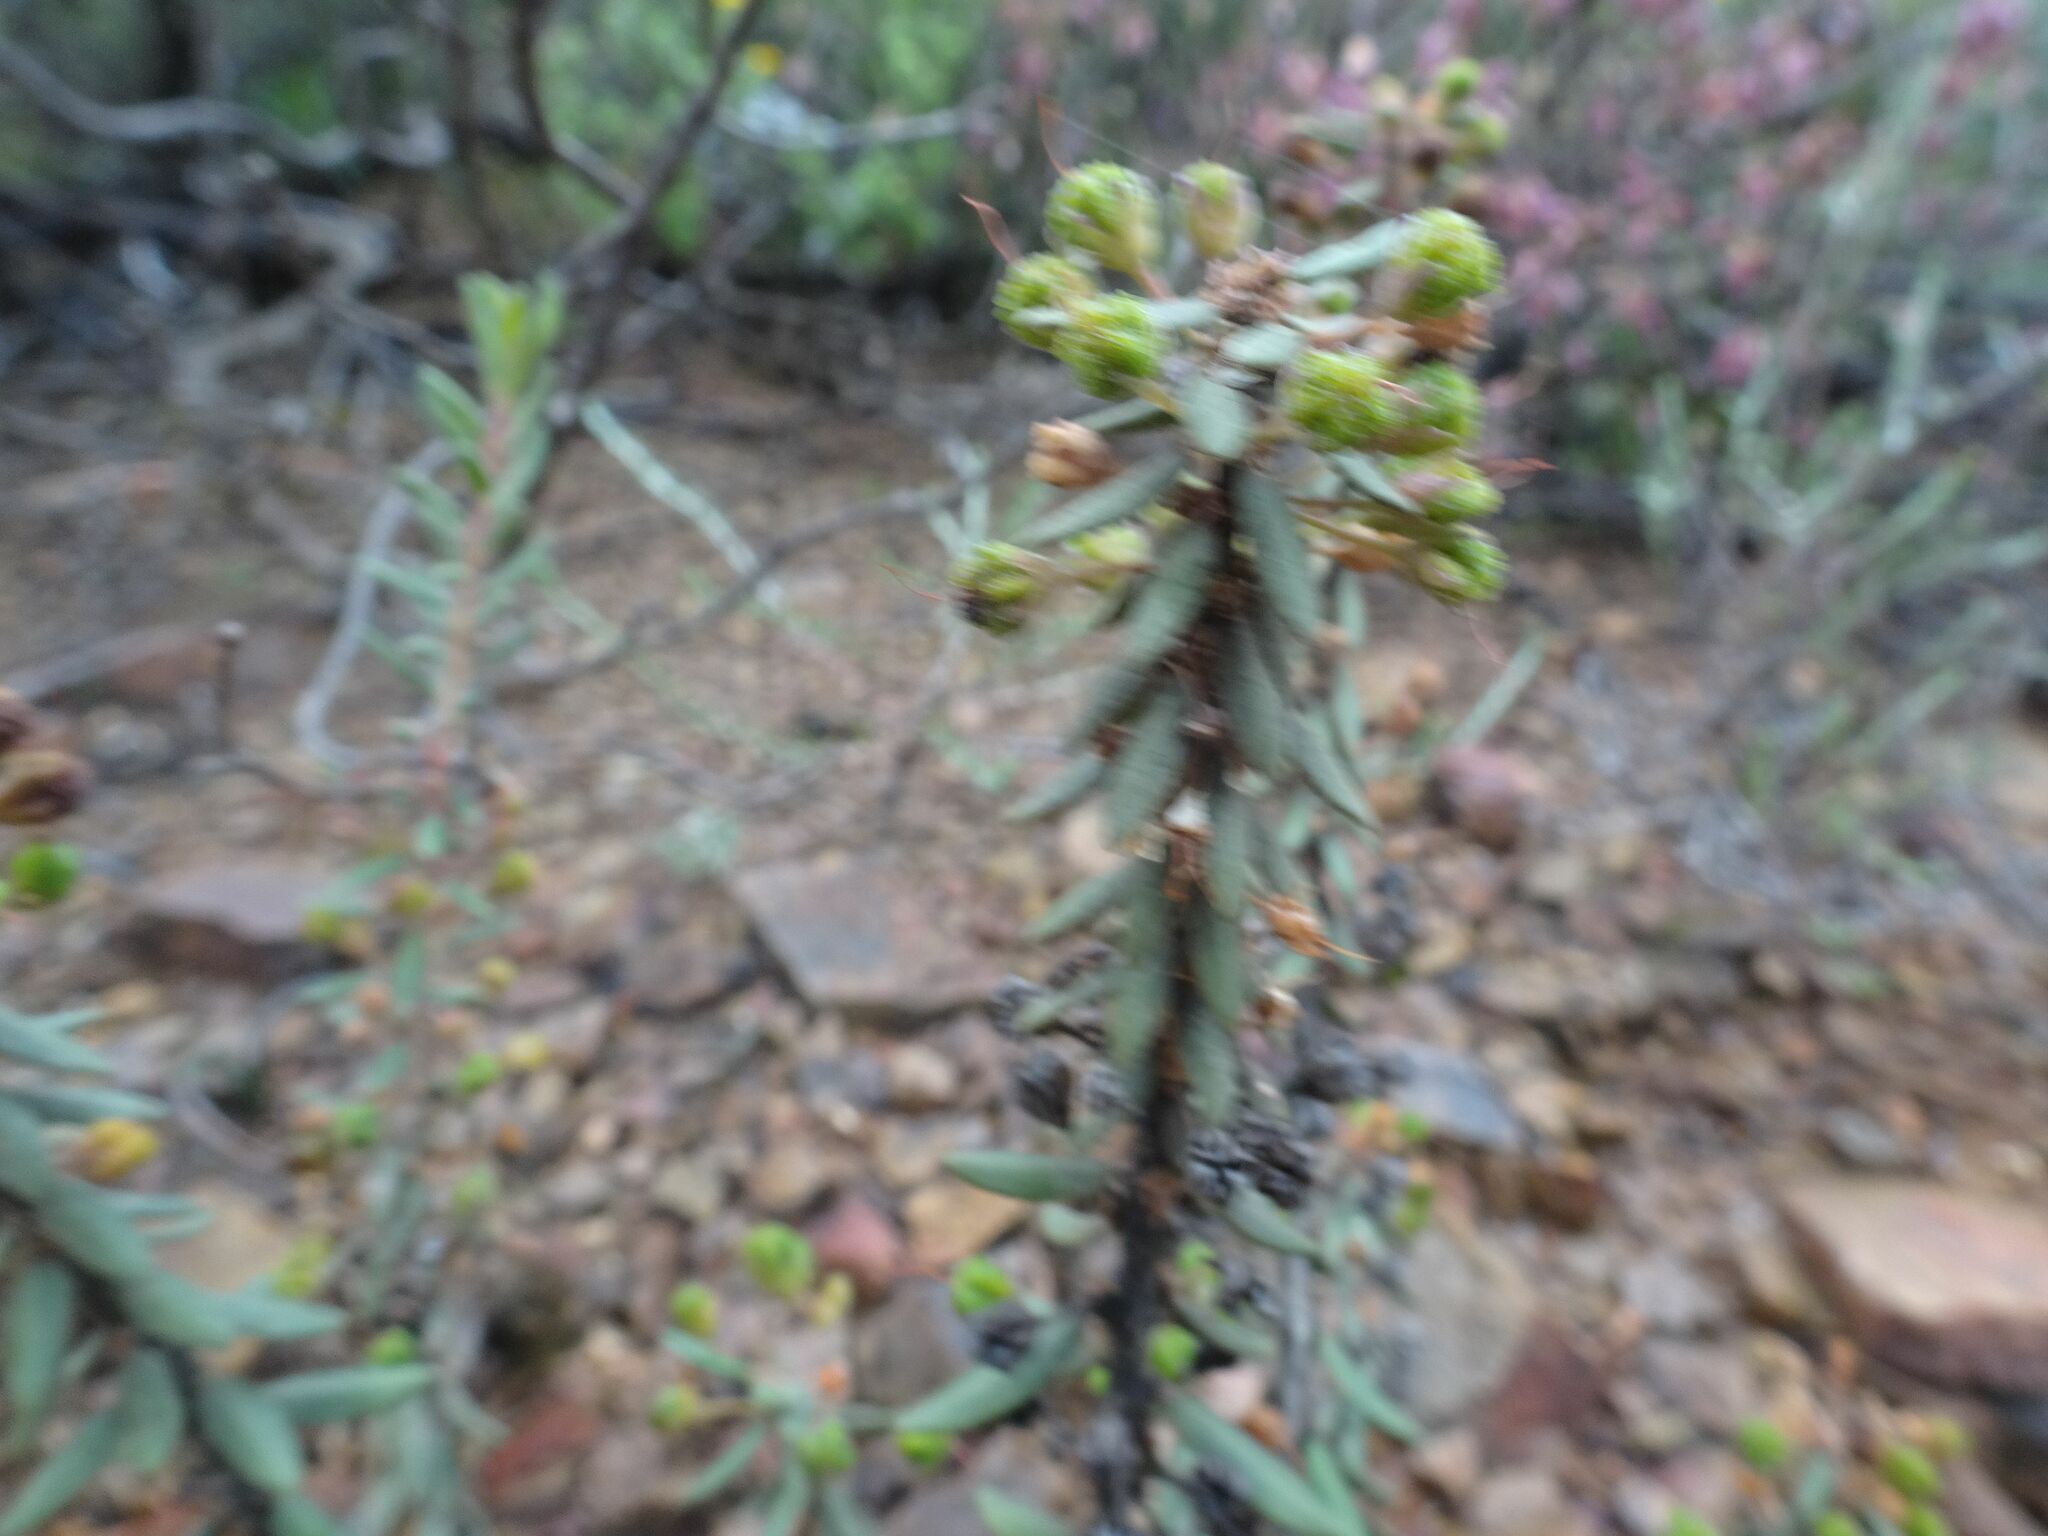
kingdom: Plantae
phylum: Tracheophyta
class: Magnoliopsida
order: Asterales
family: Asteraceae
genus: Euryops
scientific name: Euryops lateriflorus
